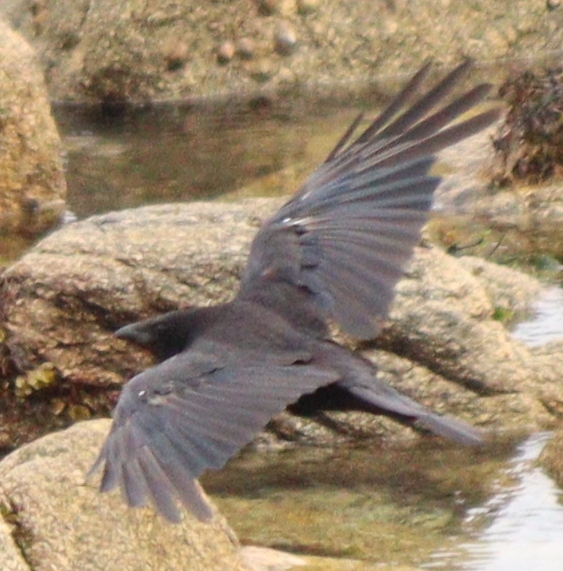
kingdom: Animalia
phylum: Chordata
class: Aves
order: Passeriformes
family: Corvidae
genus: Corvus
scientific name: Corvus corone
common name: Carrion crow
